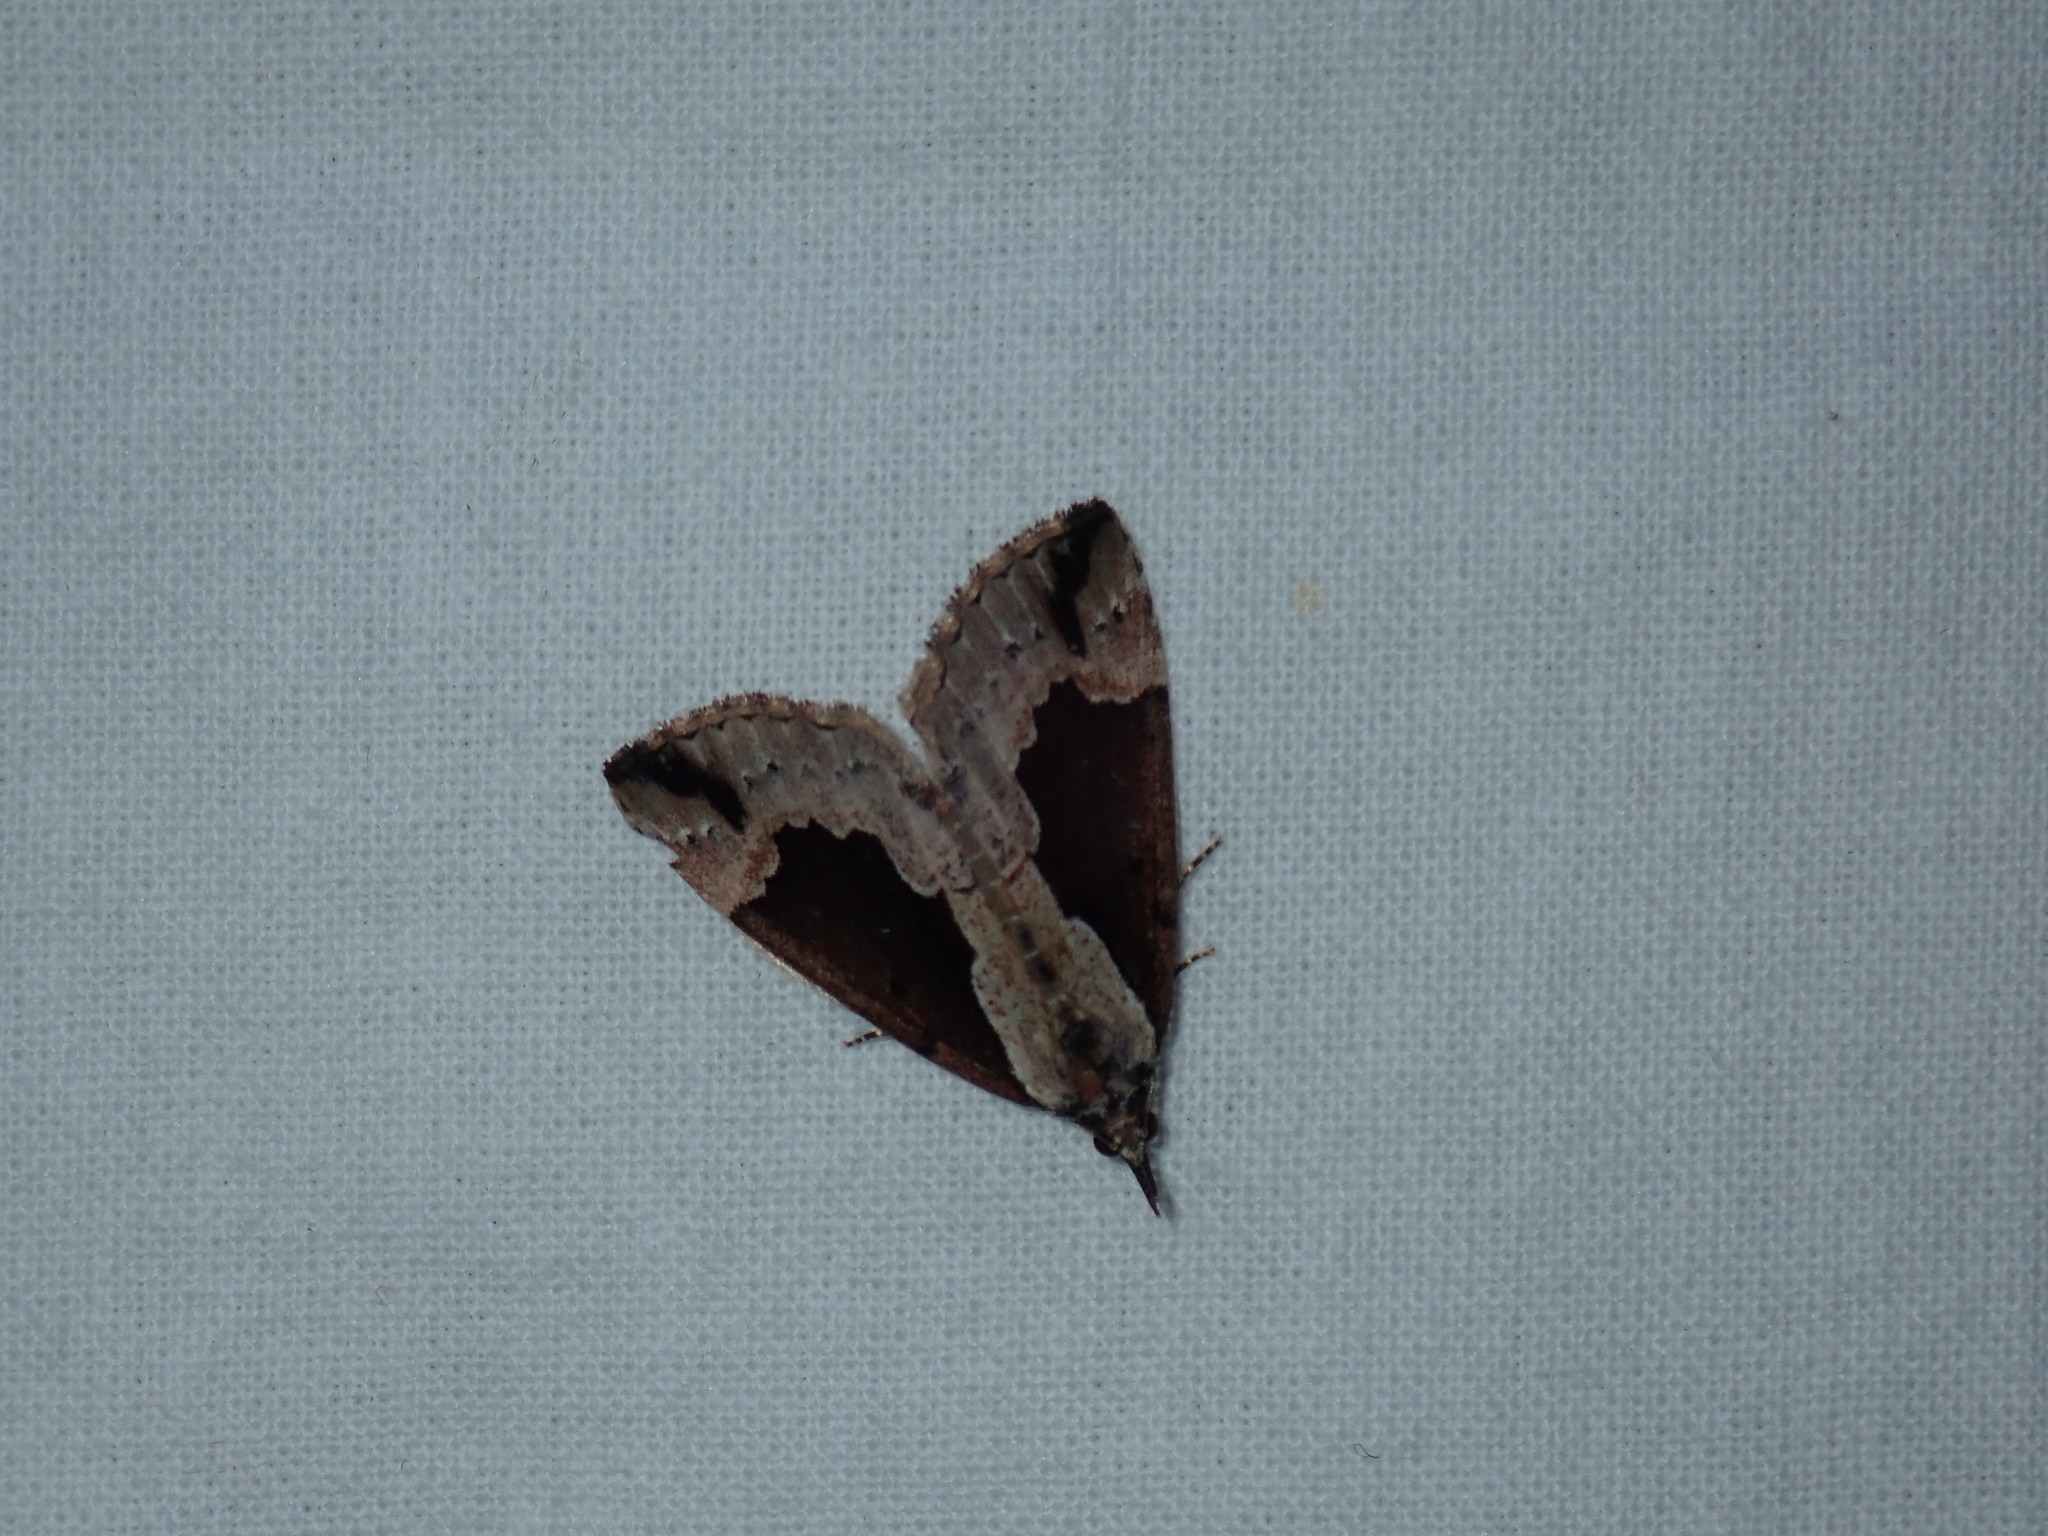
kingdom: Animalia
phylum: Arthropoda
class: Insecta
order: Lepidoptera
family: Erebidae
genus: Hypena
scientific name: Hypena baltimoralis
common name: Baltimore snout
